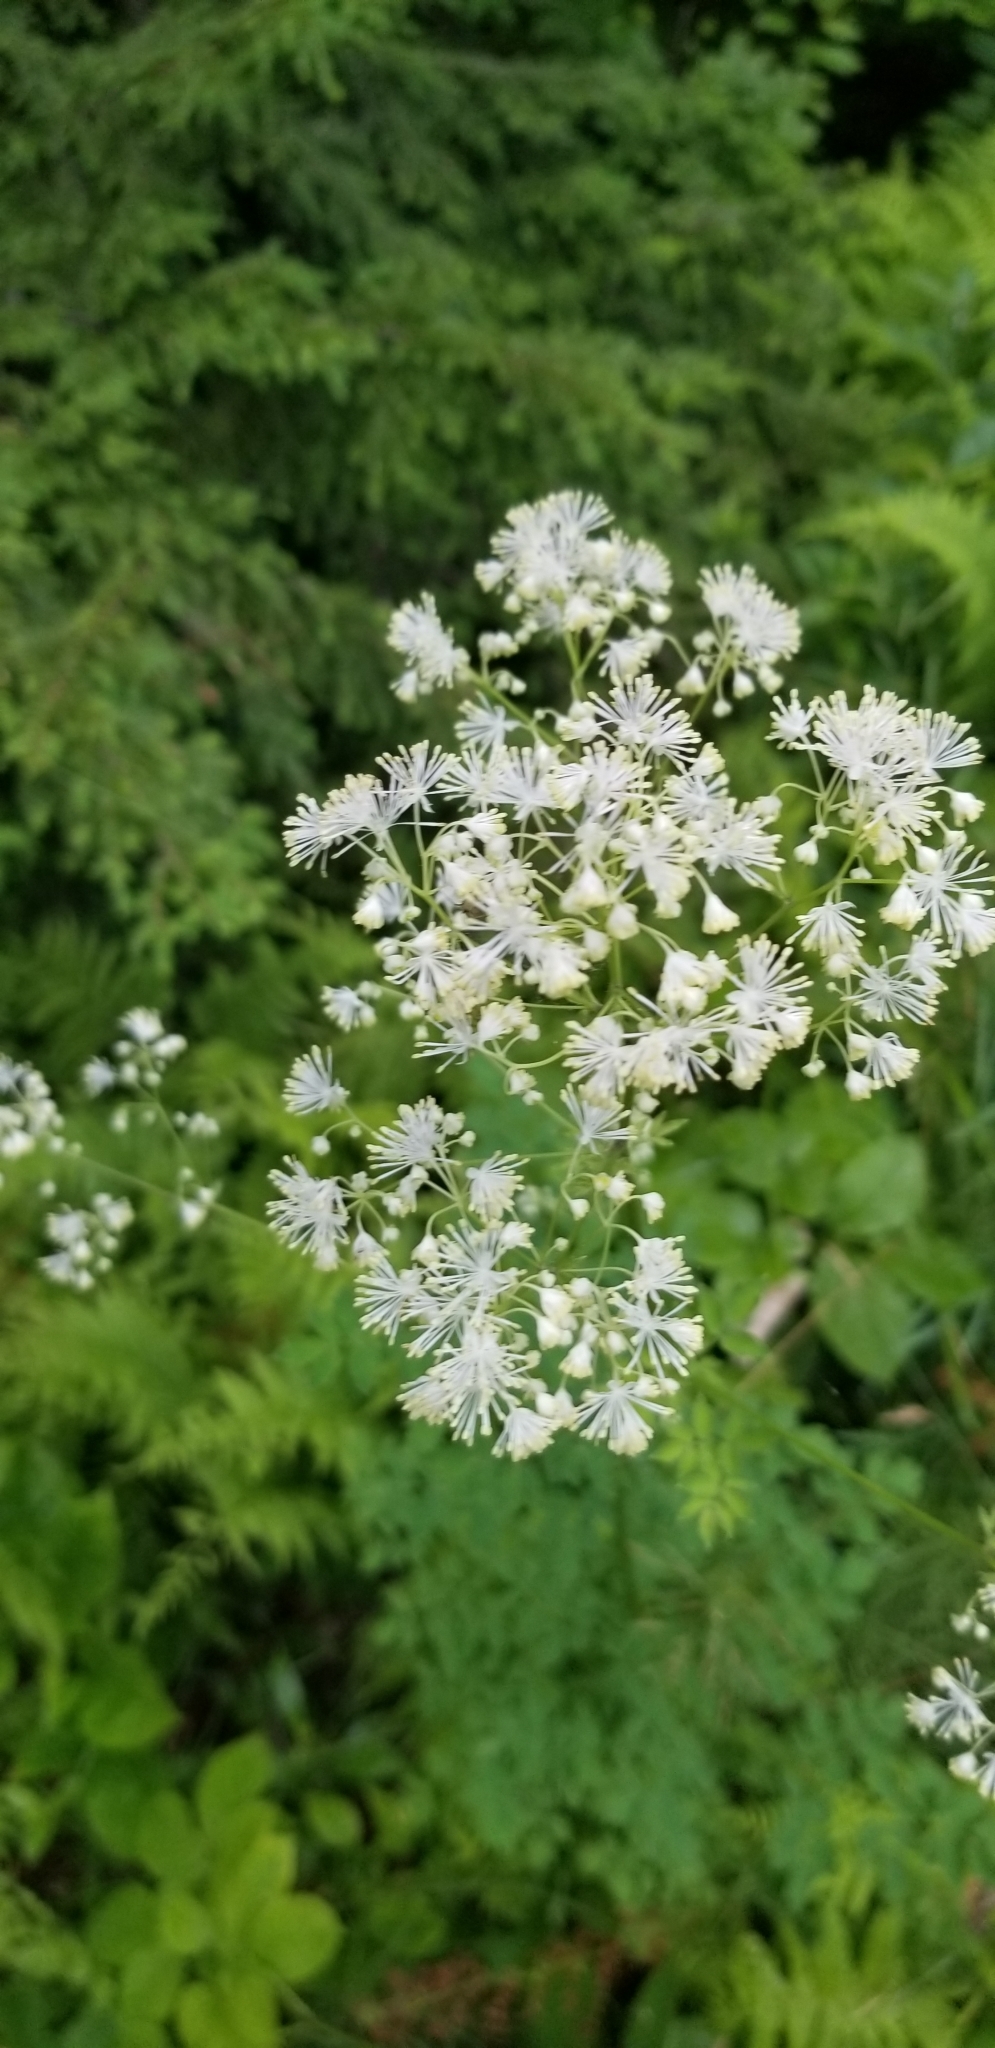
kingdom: Plantae
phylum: Tracheophyta
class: Magnoliopsida
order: Ranunculales
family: Ranunculaceae
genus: Thalictrum
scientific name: Thalictrum pubescens
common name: King-of-the-meadow
